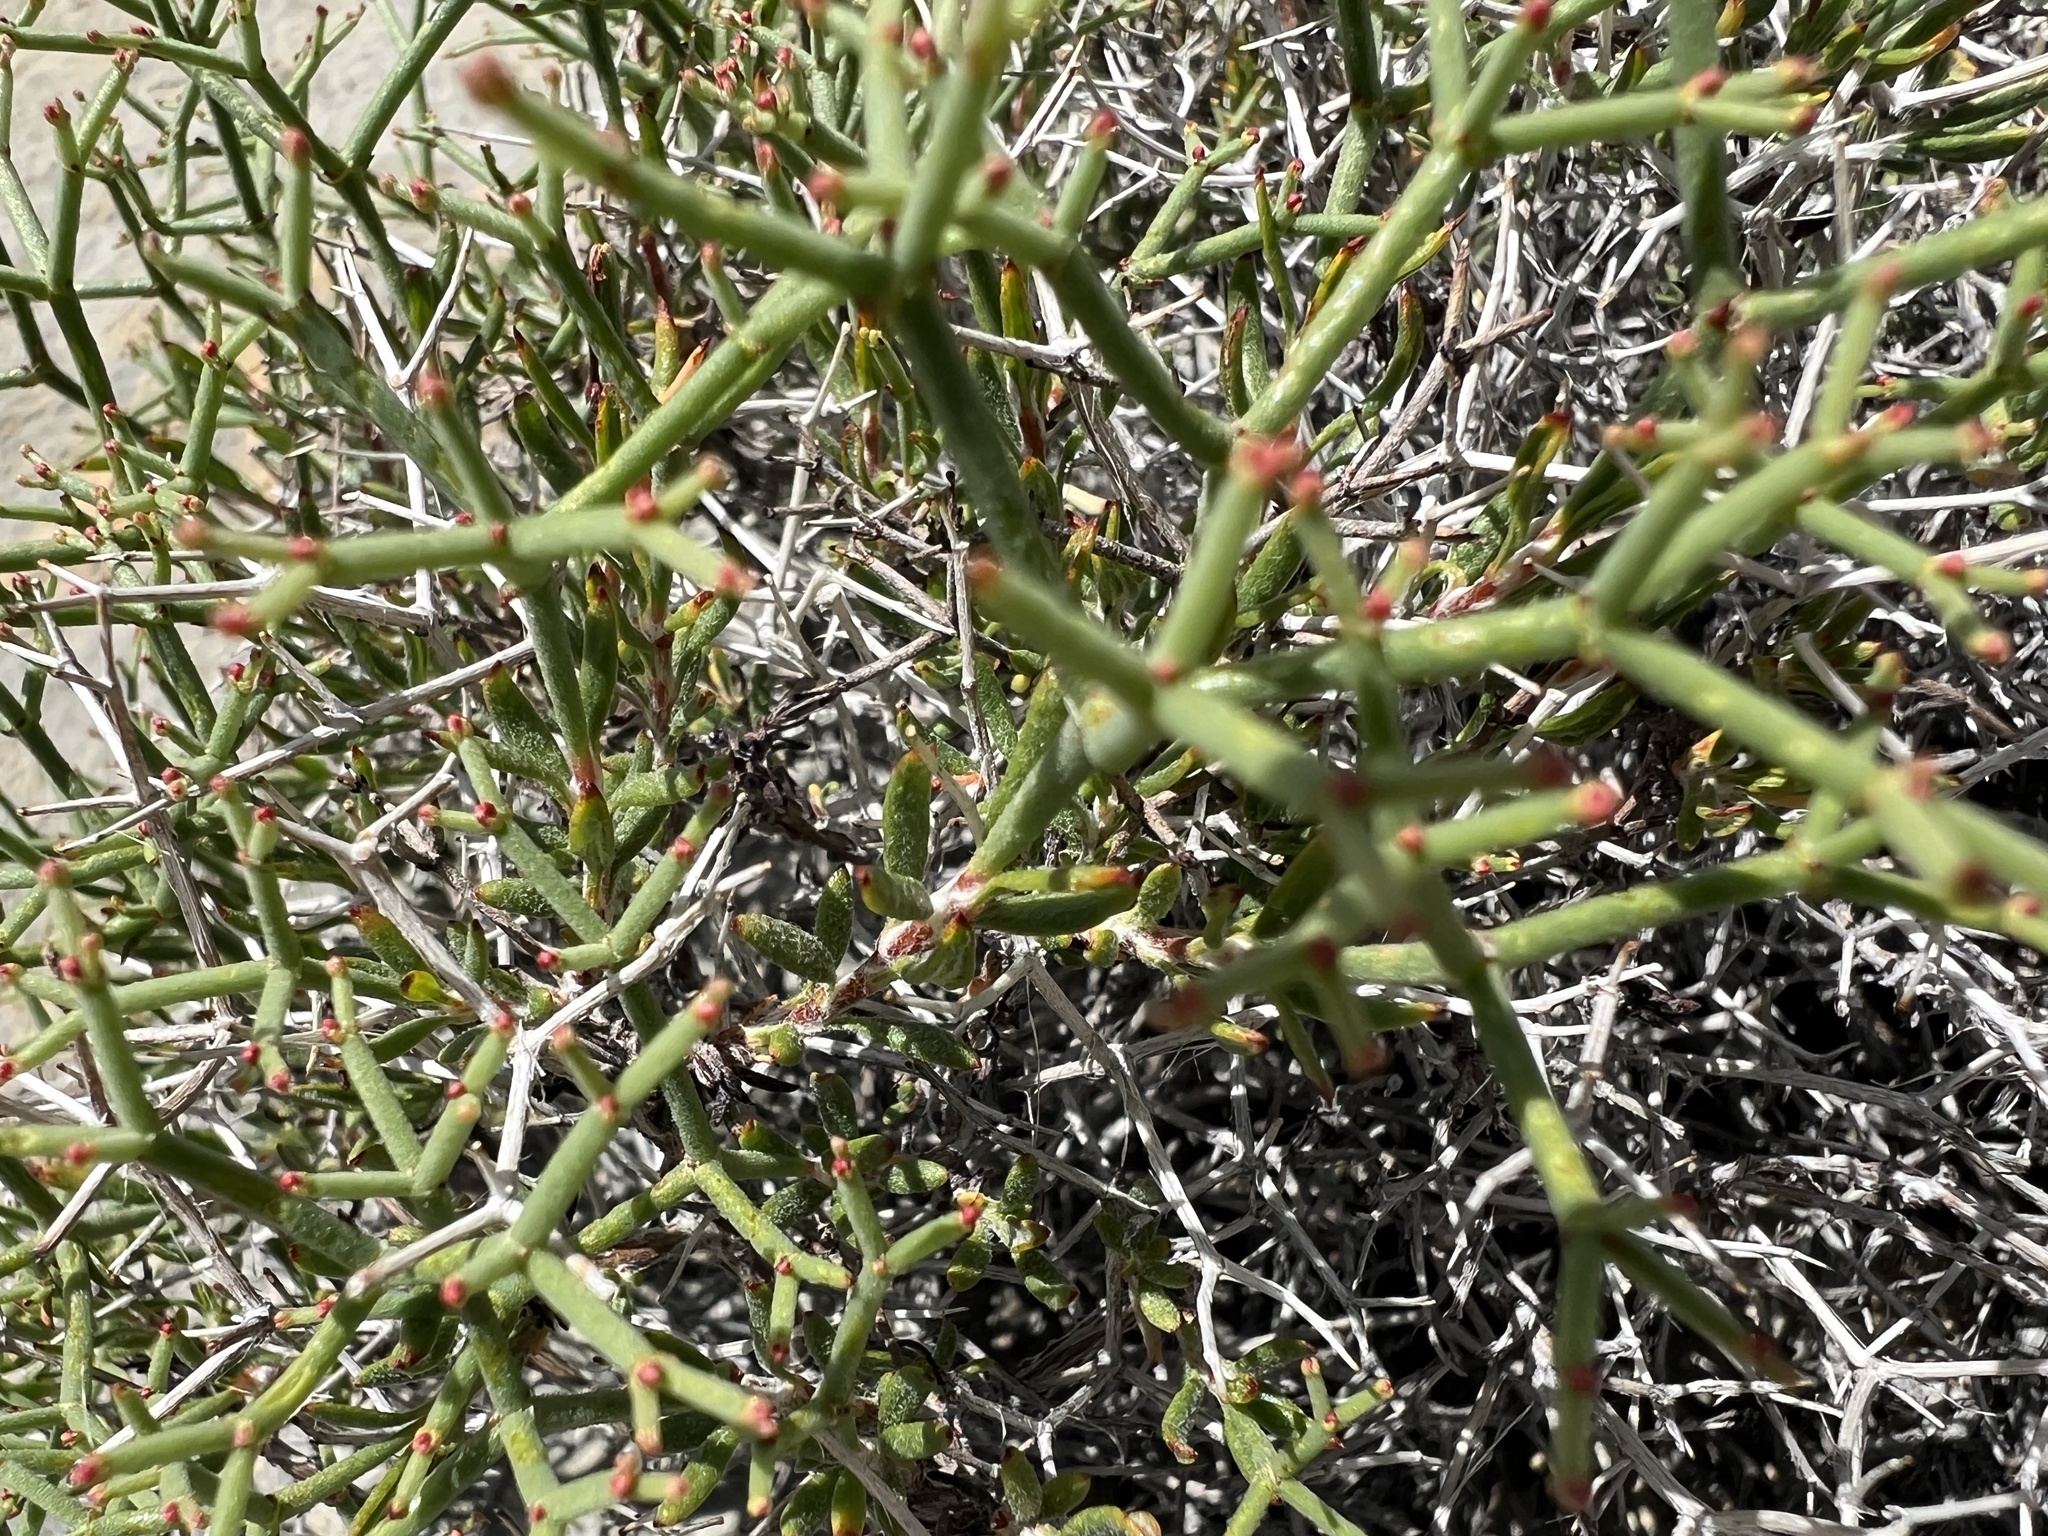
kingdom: Plantae
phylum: Tracheophyta
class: Magnoliopsida
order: Caryophyllales
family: Polygonaceae
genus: Eriogonum
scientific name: Eriogonum heermannii
